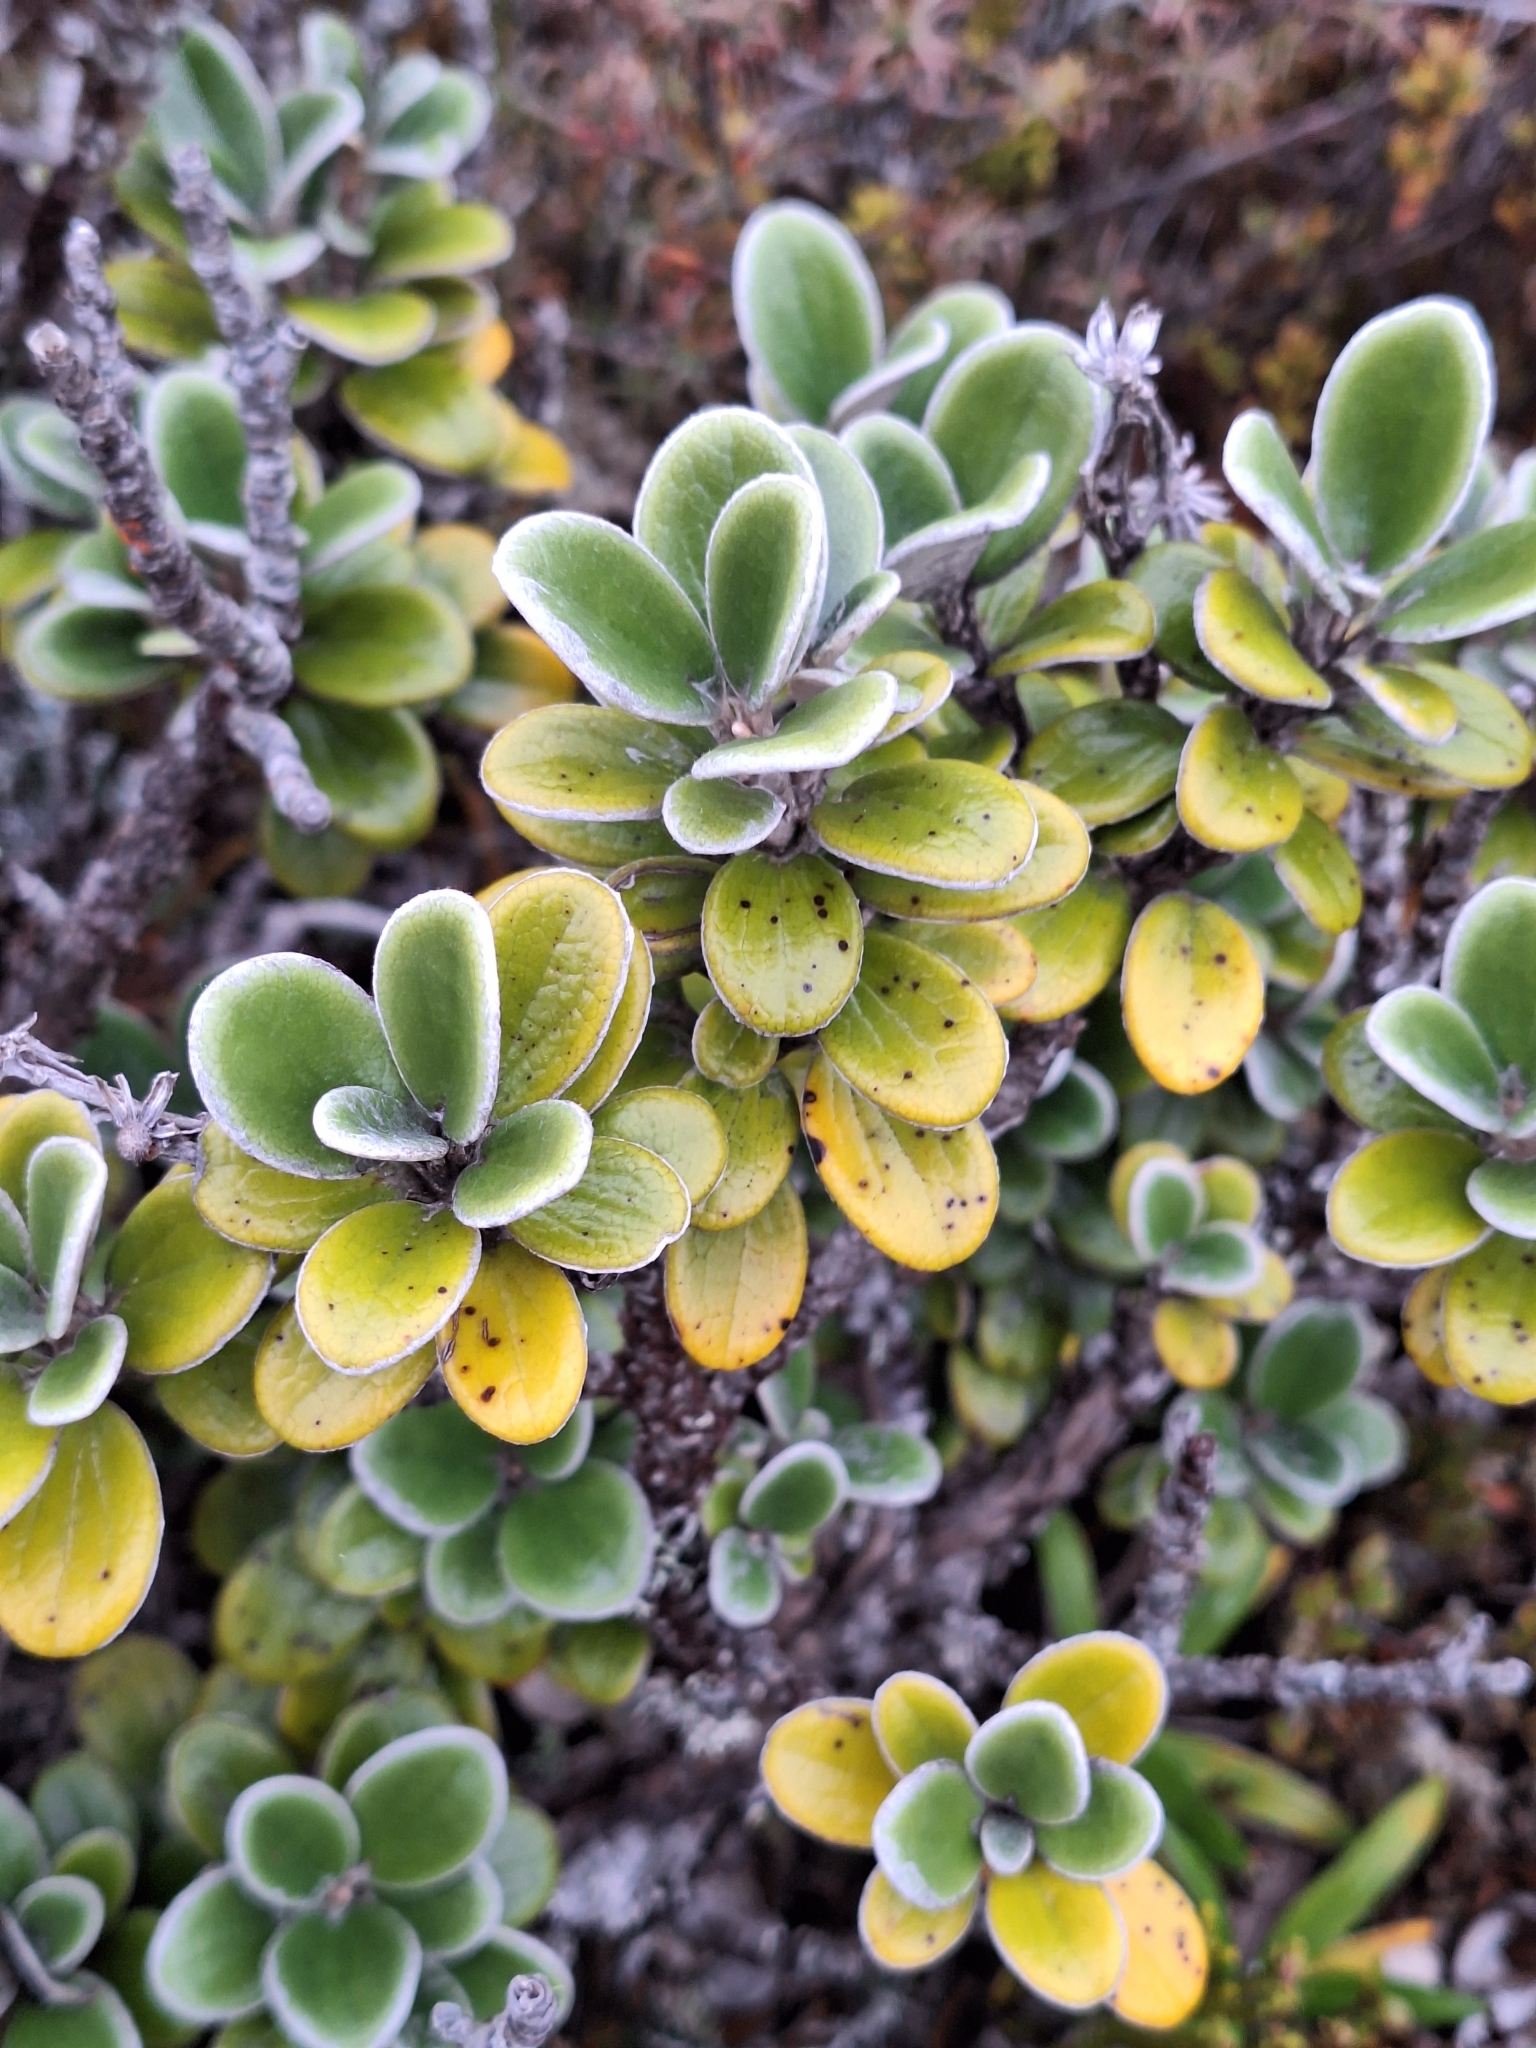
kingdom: Plantae
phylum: Tracheophyta
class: Magnoliopsida
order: Asterales
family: Asteraceae
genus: Brachyglottis
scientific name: Brachyglottis bidwillii
